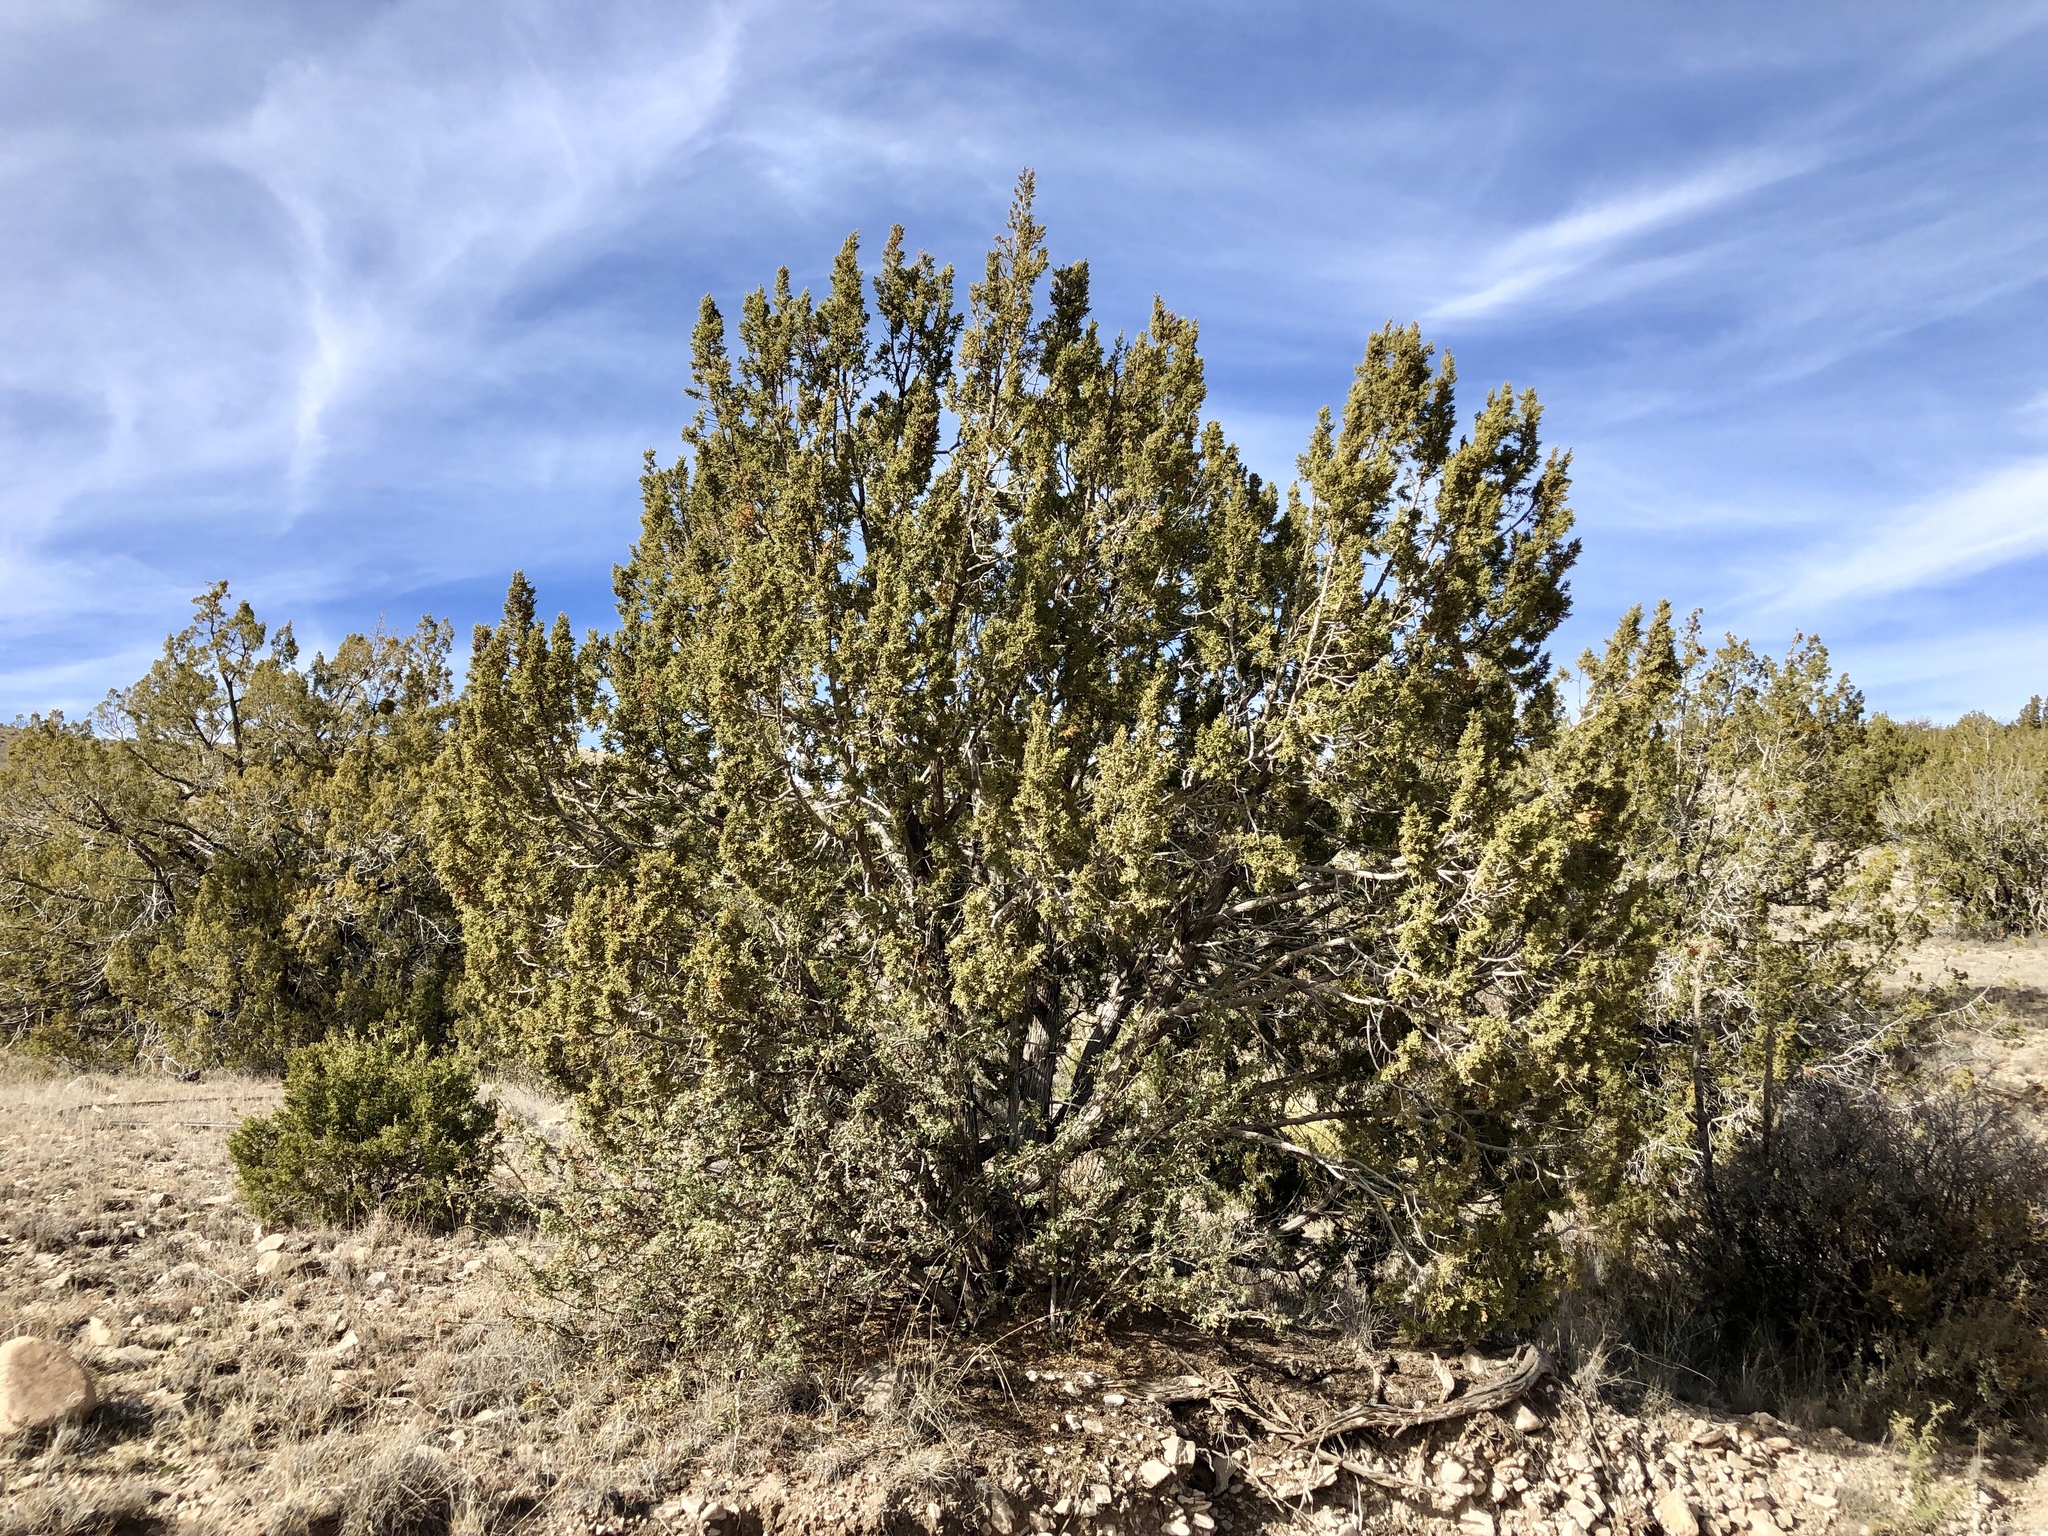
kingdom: Plantae
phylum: Tracheophyta
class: Pinopsida
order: Pinales
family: Cupressaceae
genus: Juniperus
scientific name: Juniperus monosperma
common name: One-seed juniper
